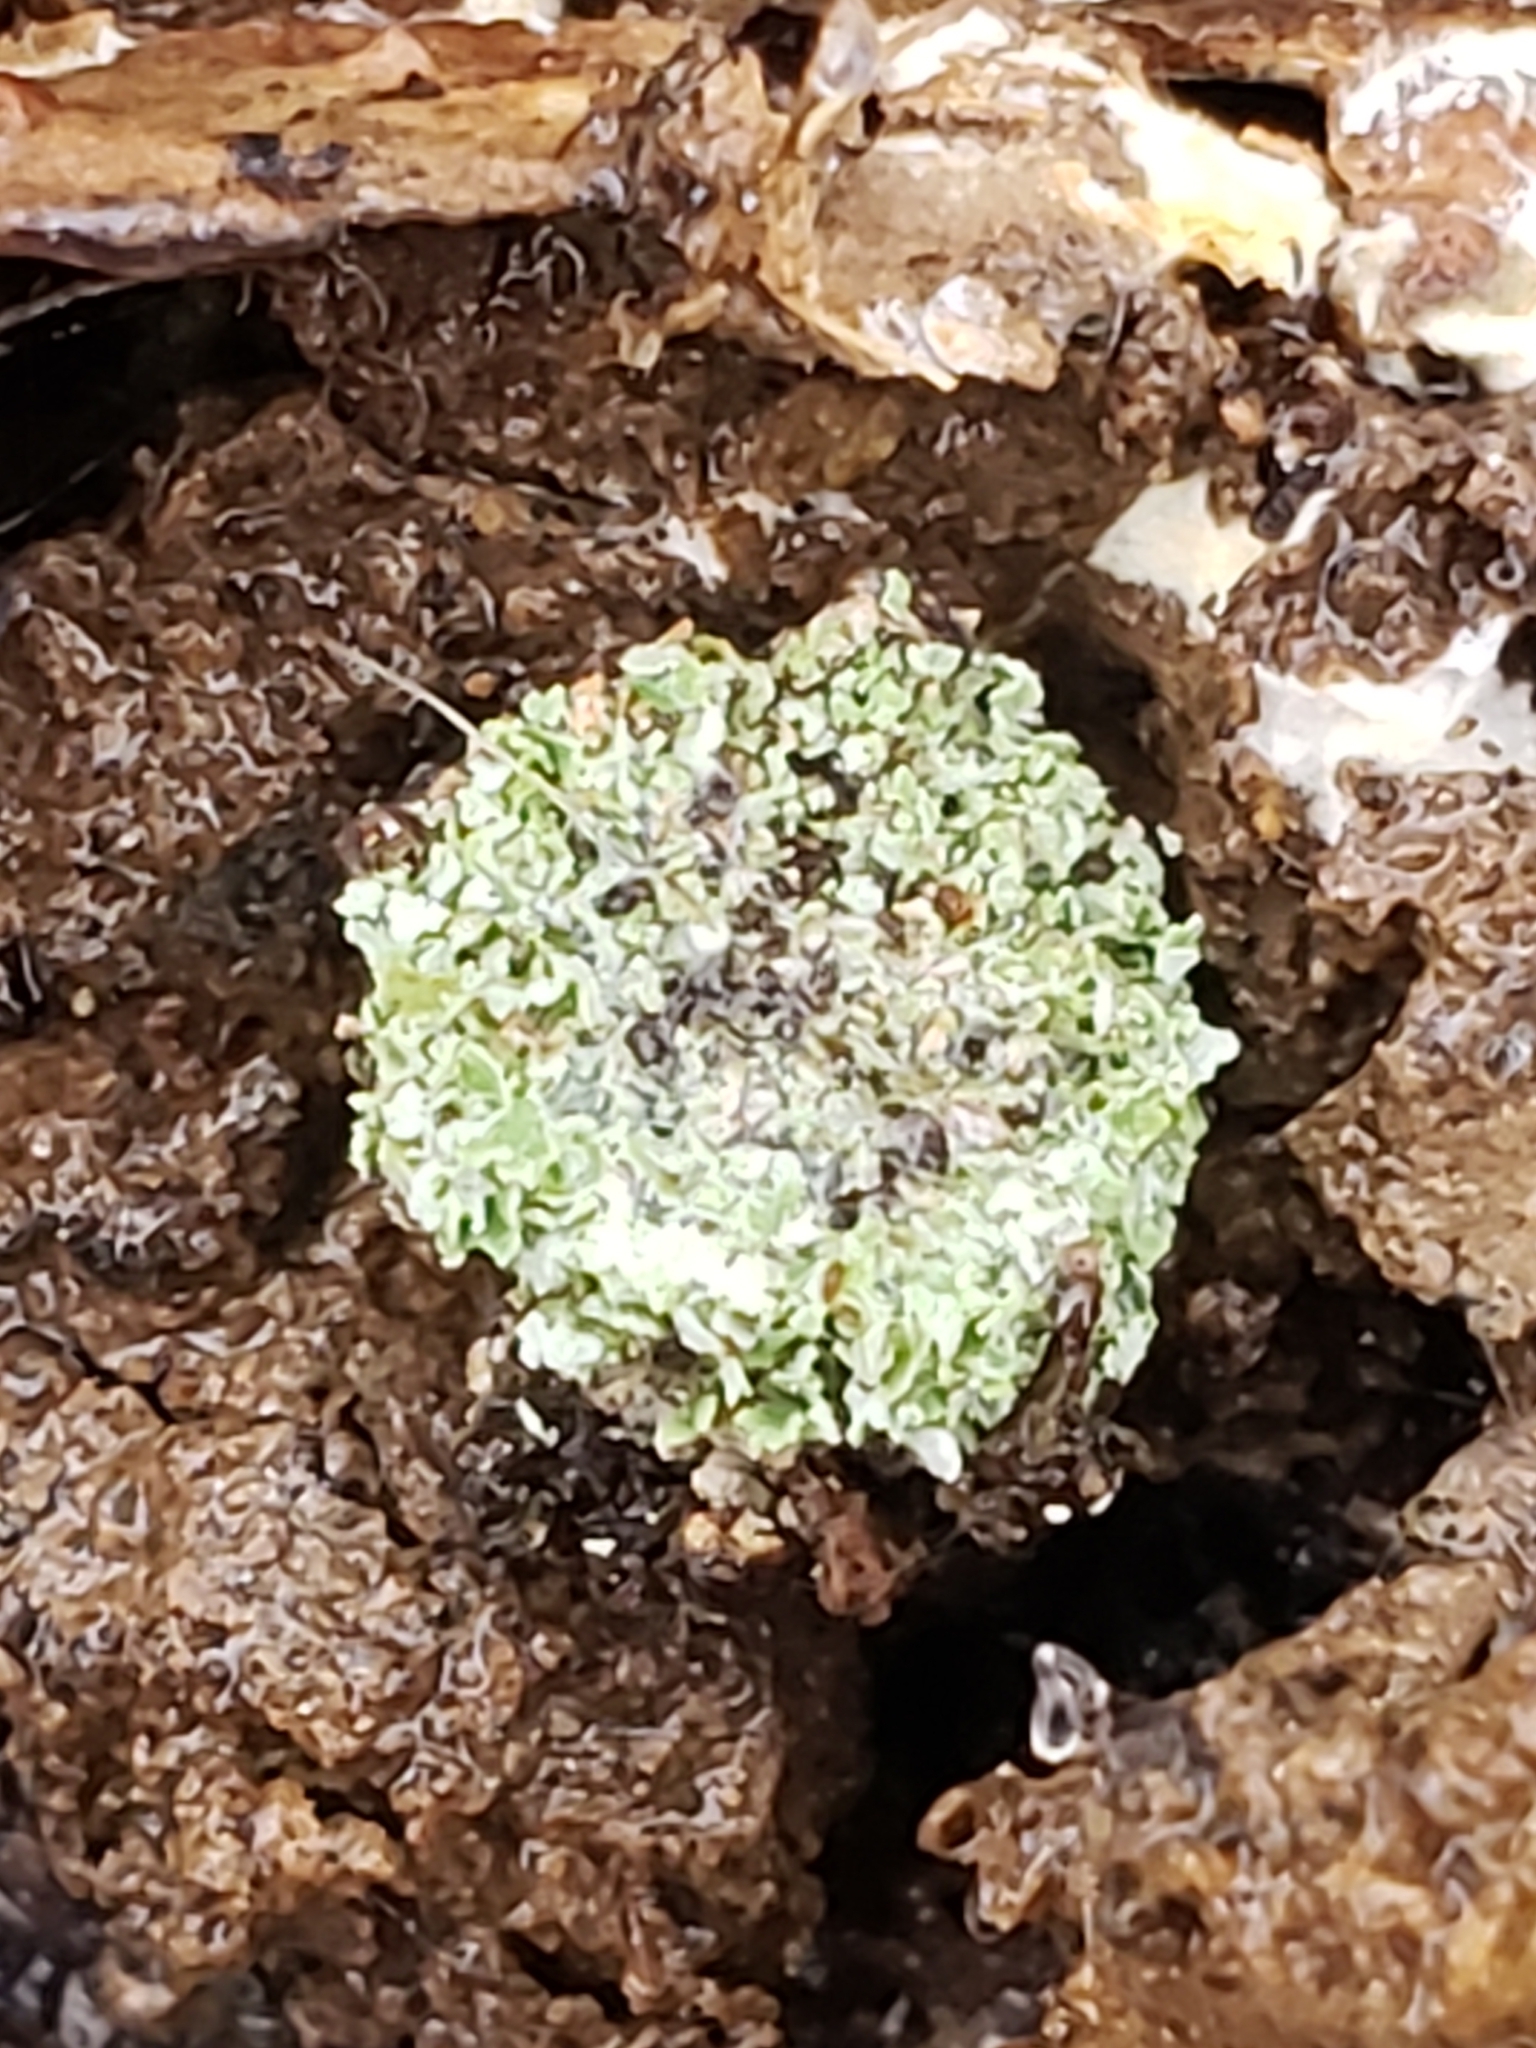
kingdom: Animalia
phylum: Arthropoda
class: Insecta
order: Neuroptera
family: Chrysopidae
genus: Leucochrysa
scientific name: Leucochrysa pavida
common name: Lichen-carrying green lacewing
